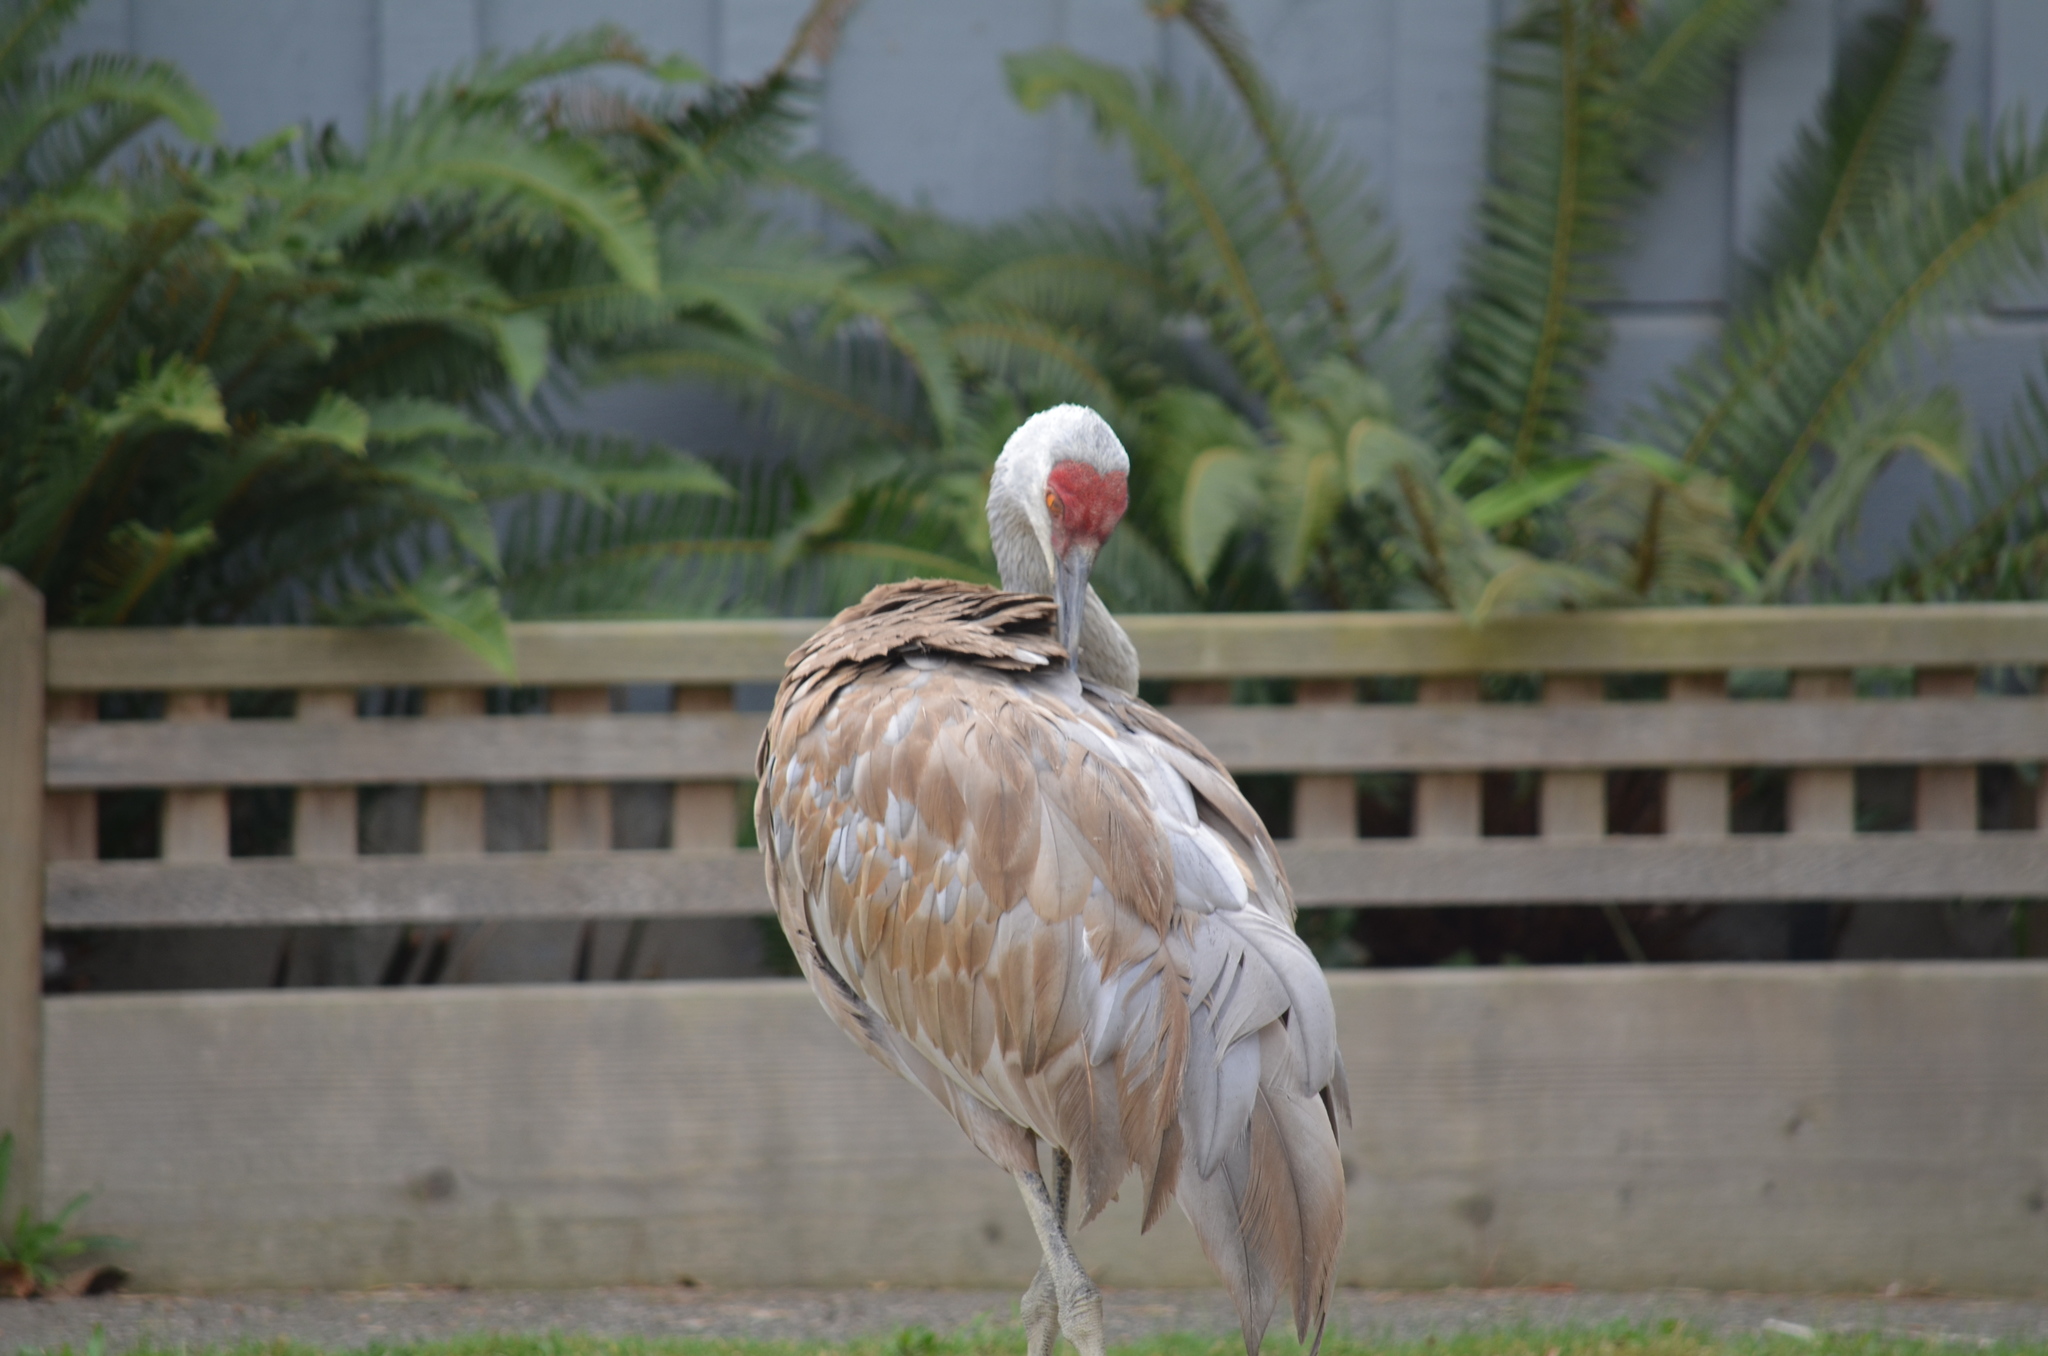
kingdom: Animalia
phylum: Chordata
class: Aves
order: Gruiformes
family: Gruidae
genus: Grus
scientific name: Grus canadensis
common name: Sandhill crane
